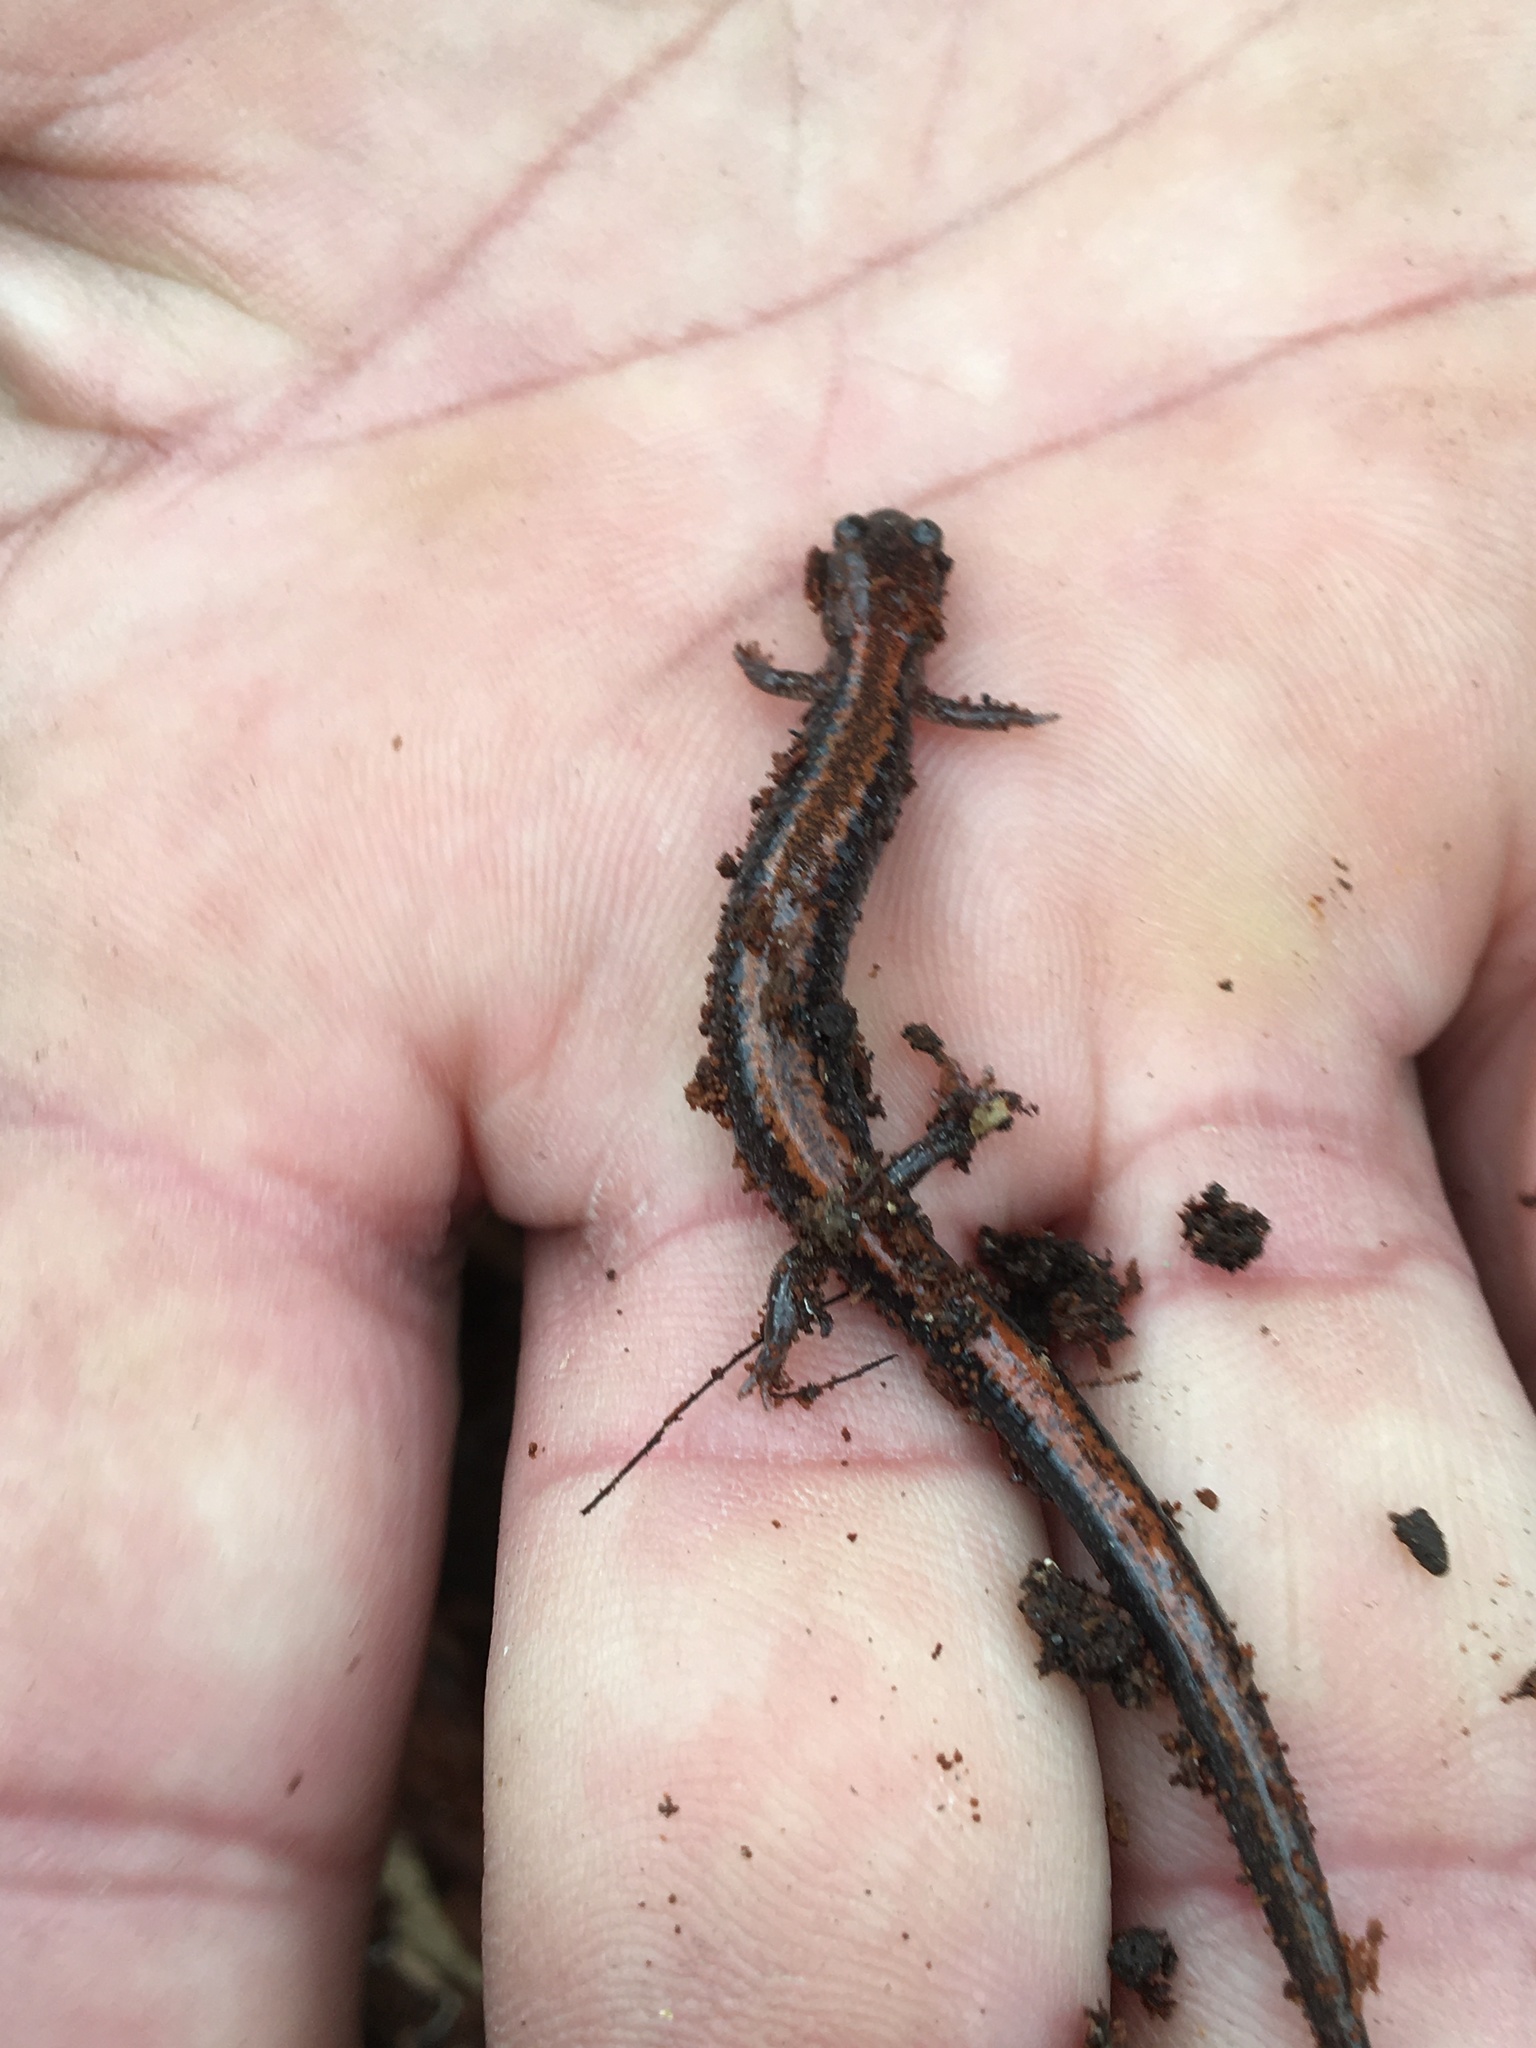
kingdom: Animalia
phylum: Chordata
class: Amphibia
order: Caudata
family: Plethodontidae
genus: Plethodon
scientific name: Plethodon cinereus
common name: Redback salamander
